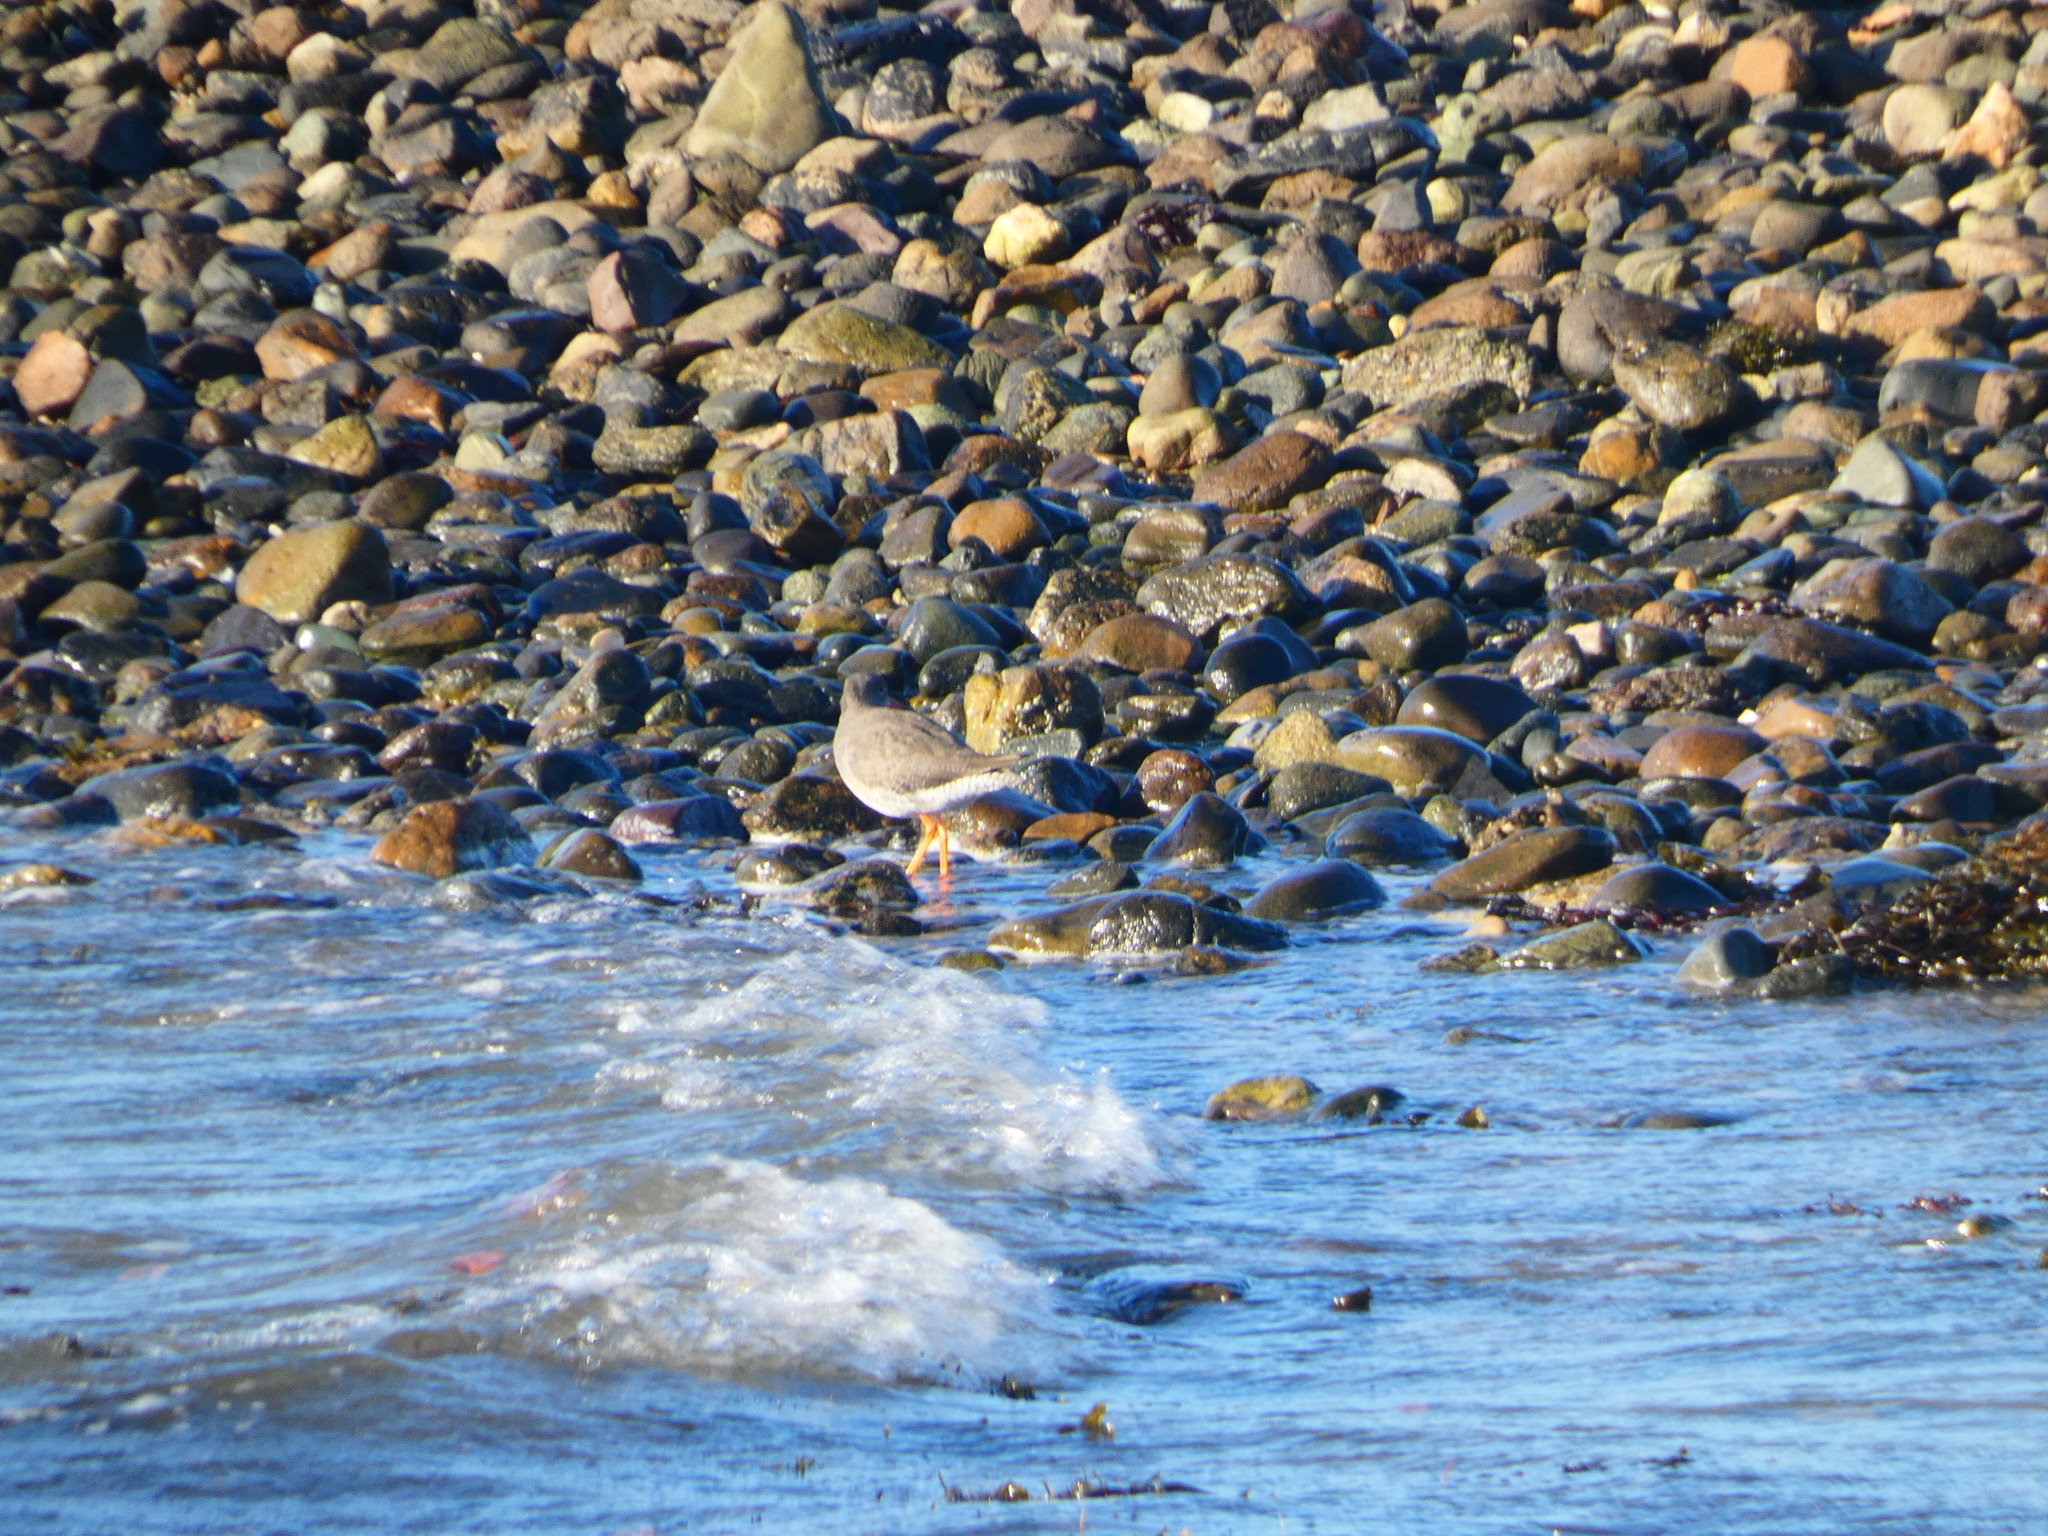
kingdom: Animalia
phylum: Chordata
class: Aves
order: Charadriiformes
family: Scolopacidae
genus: Tringa
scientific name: Tringa totanus
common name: Common redshank
